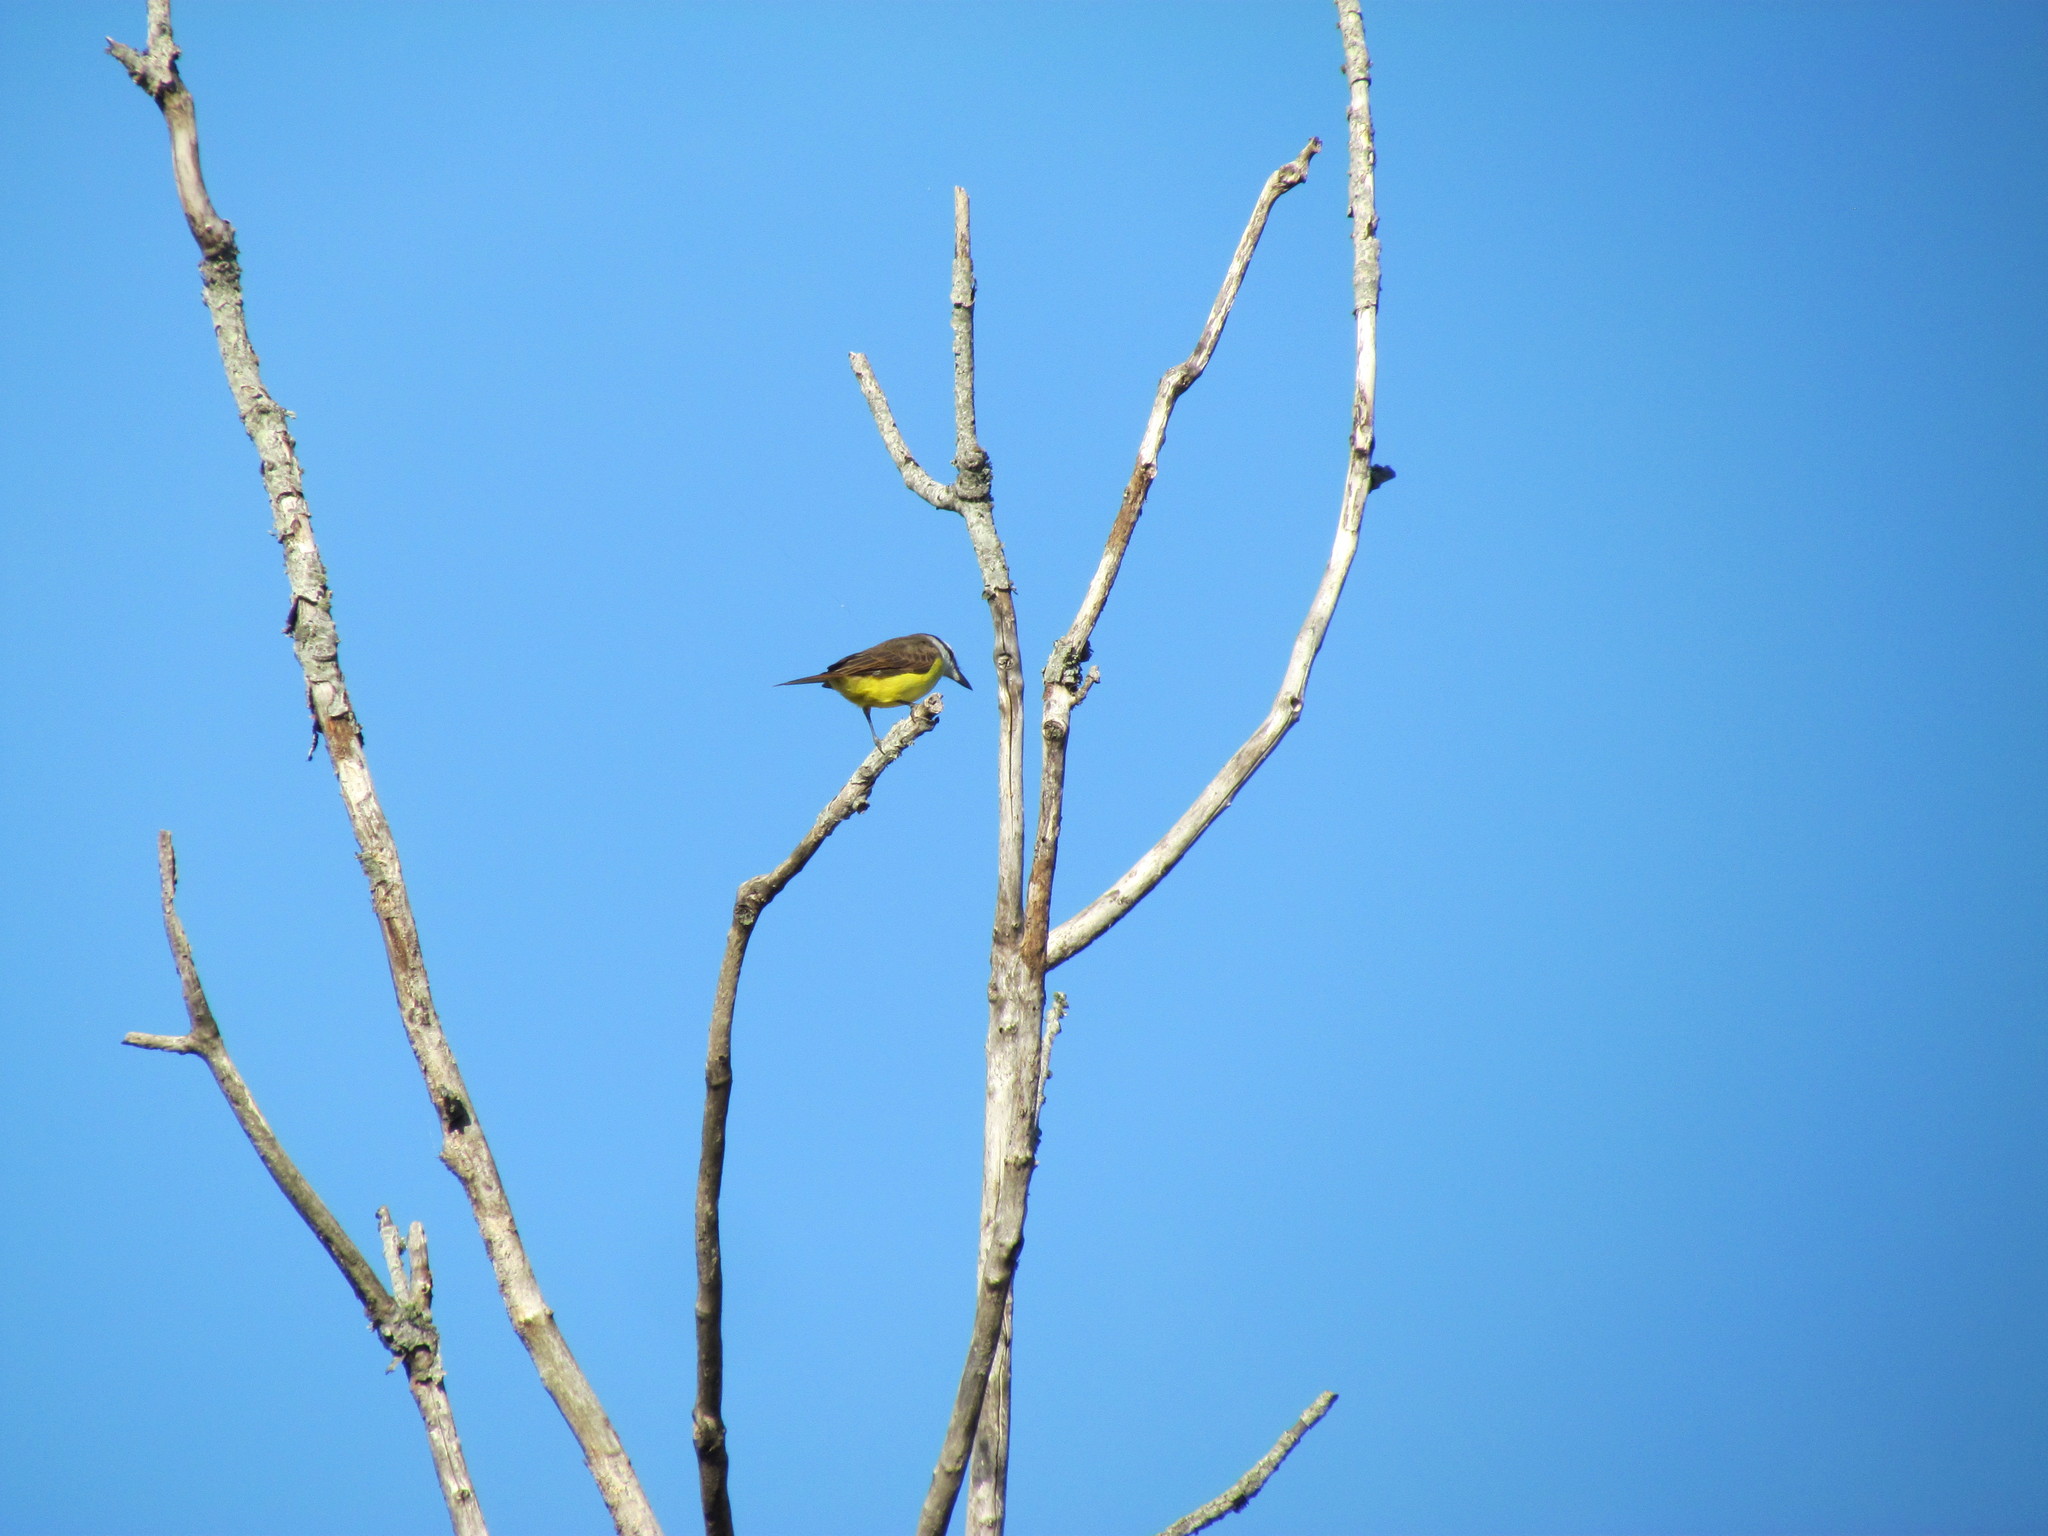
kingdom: Animalia
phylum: Chordata
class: Aves
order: Passeriformes
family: Tyrannidae
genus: Pitangus
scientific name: Pitangus sulphuratus
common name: Great kiskadee
